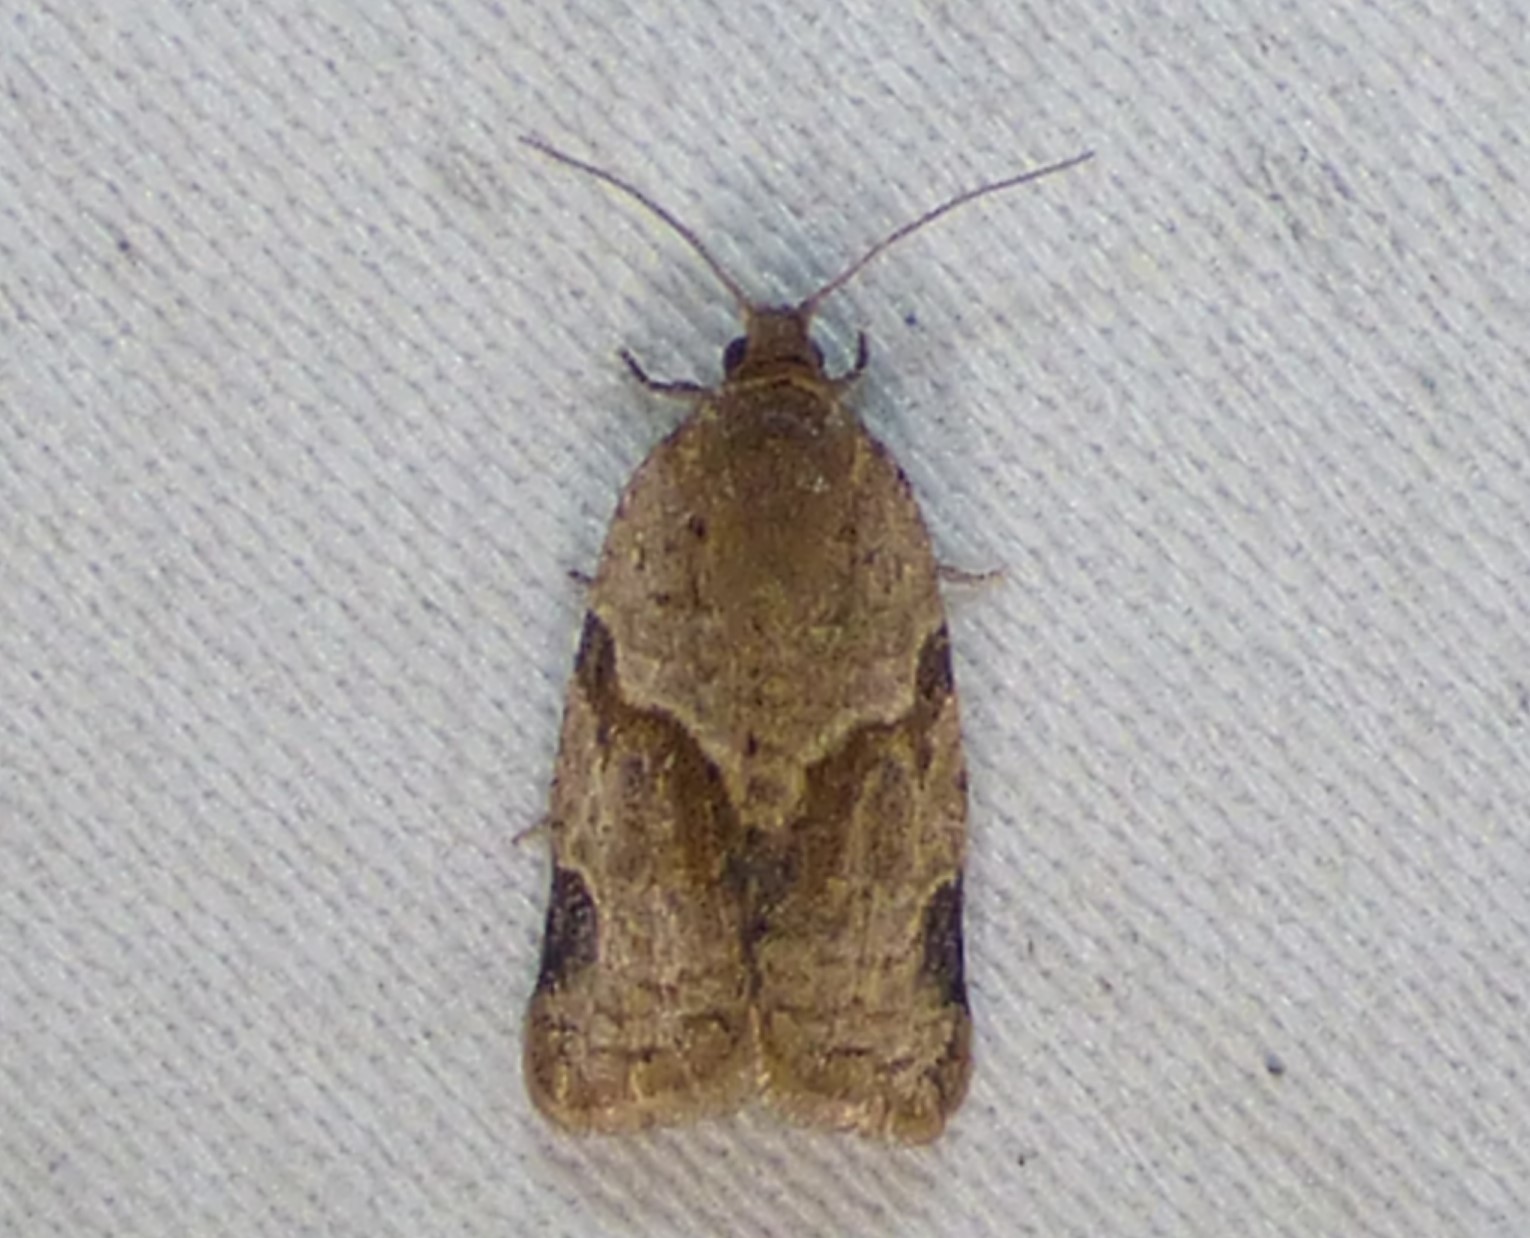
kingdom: Animalia
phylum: Arthropoda
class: Insecta
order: Lepidoptera
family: Tortricidae
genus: Clepsis
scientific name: Clepsis peritana
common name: Garden tortrix
